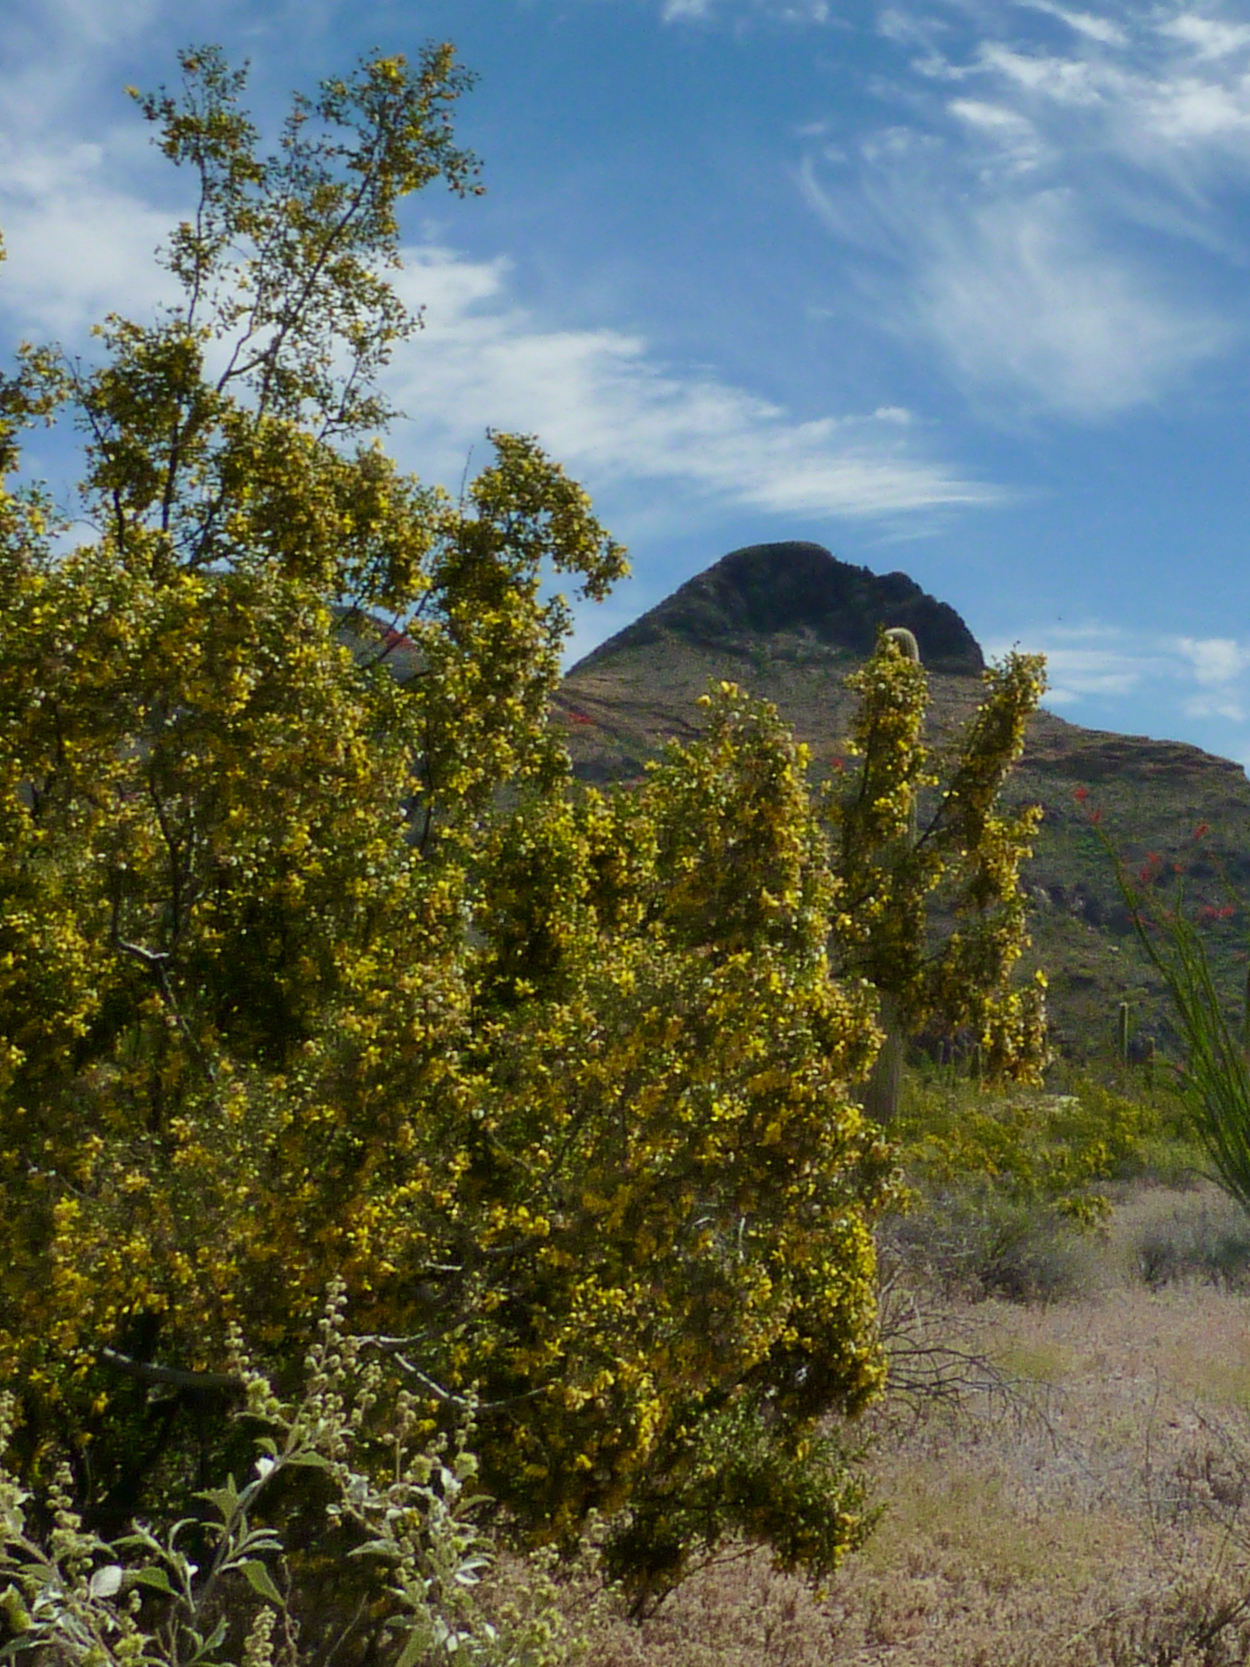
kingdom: Plantae
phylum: Tracheophyta
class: Magnoliopsida
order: Zygophyllales
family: Zygophyllaceae
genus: Larrea
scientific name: Larrea tridentata
